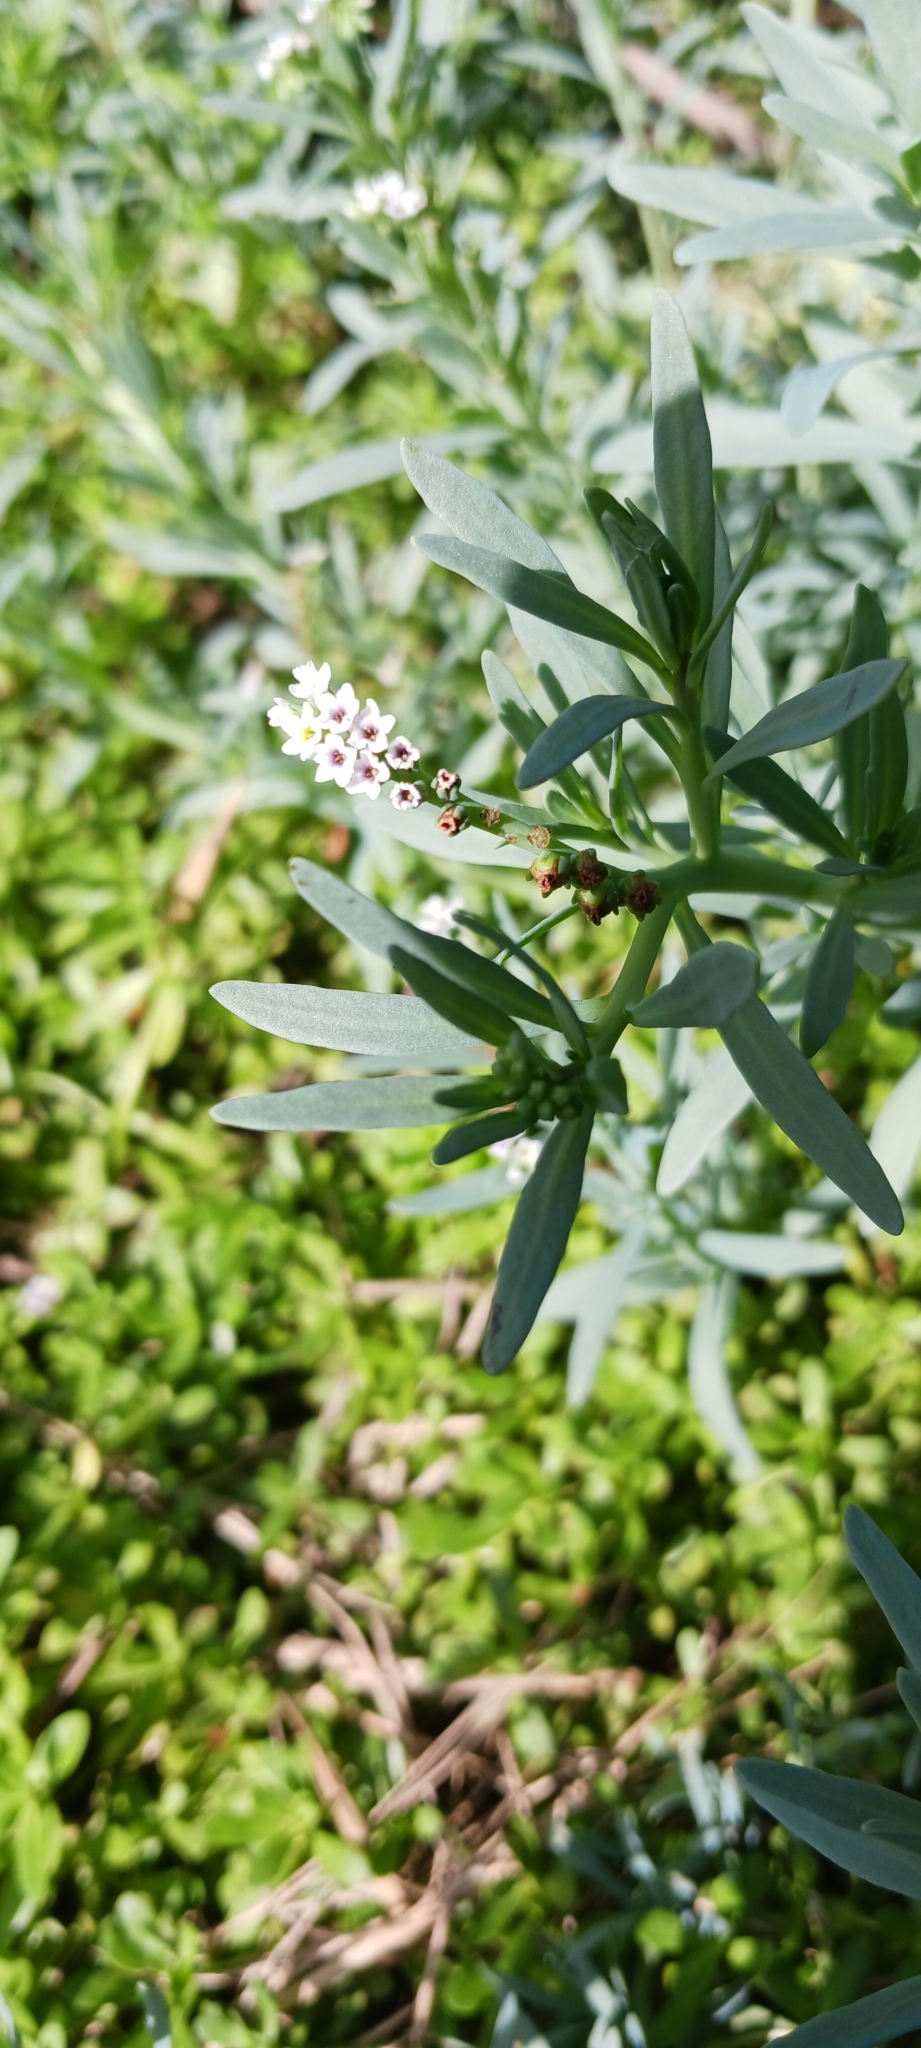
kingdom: Plantae
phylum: Tracheophyta
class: Magnoliopsida
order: Boraginales
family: Heliotropiaceae
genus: Heliotropium
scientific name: Heliotropium curassavicum
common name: Seaside heliotrope
